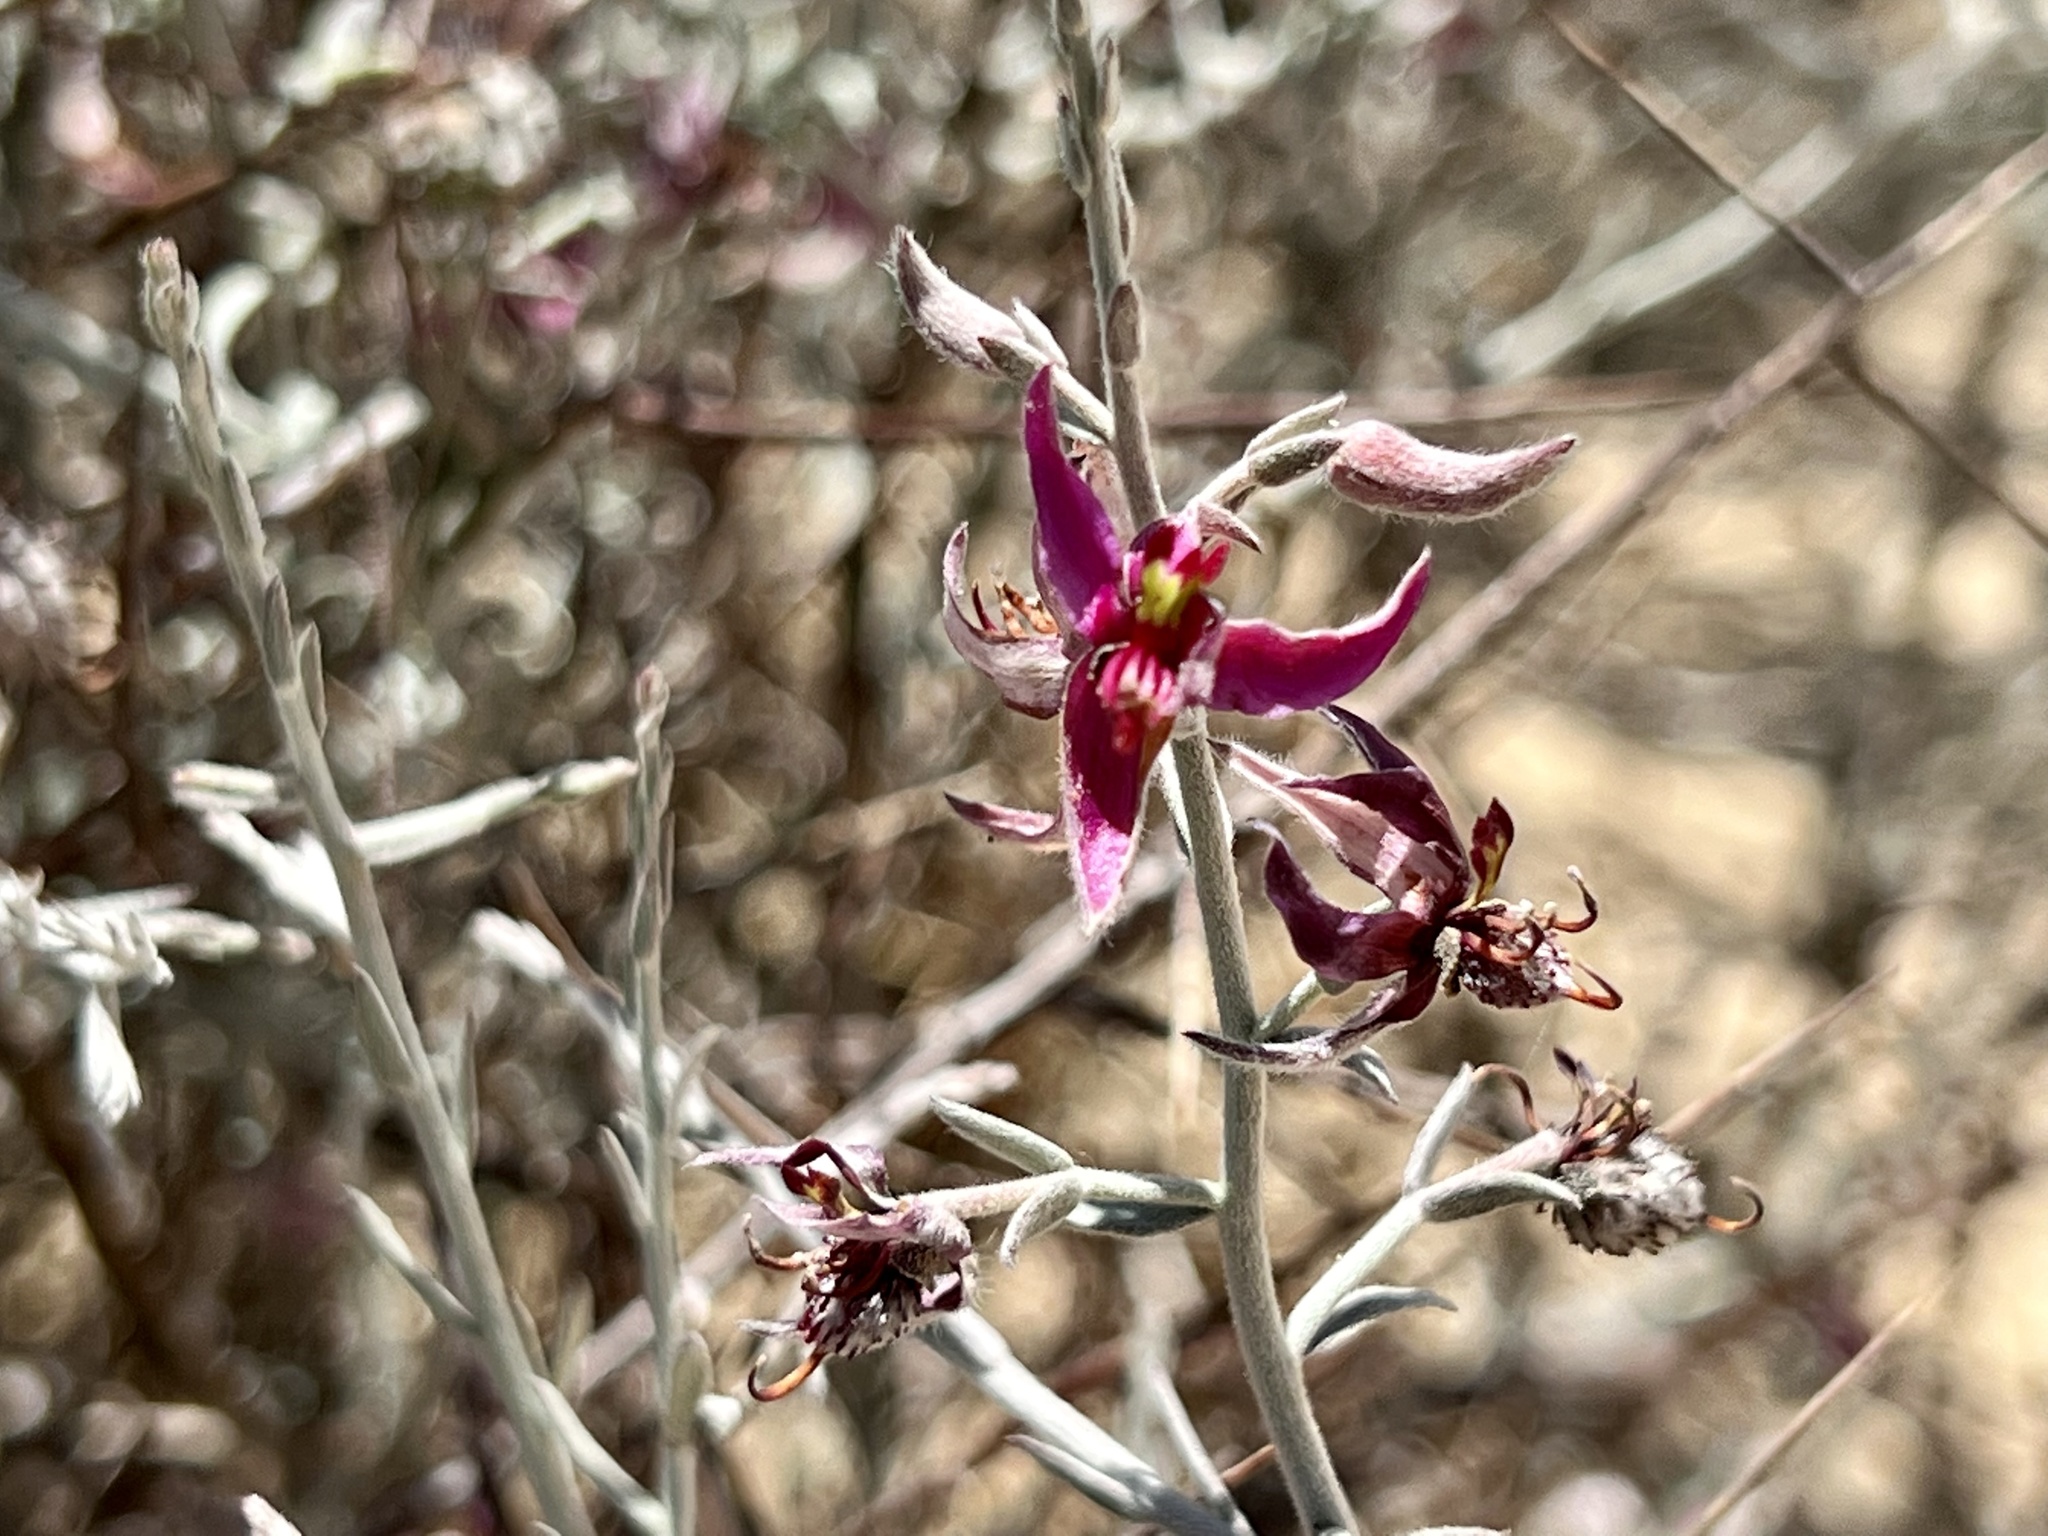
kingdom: Plantae
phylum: Tracheophyta
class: Magnoliopsida
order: Zygophyllales
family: Krameriaceae
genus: Krameria
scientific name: Krameria bicolor
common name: White ratany
